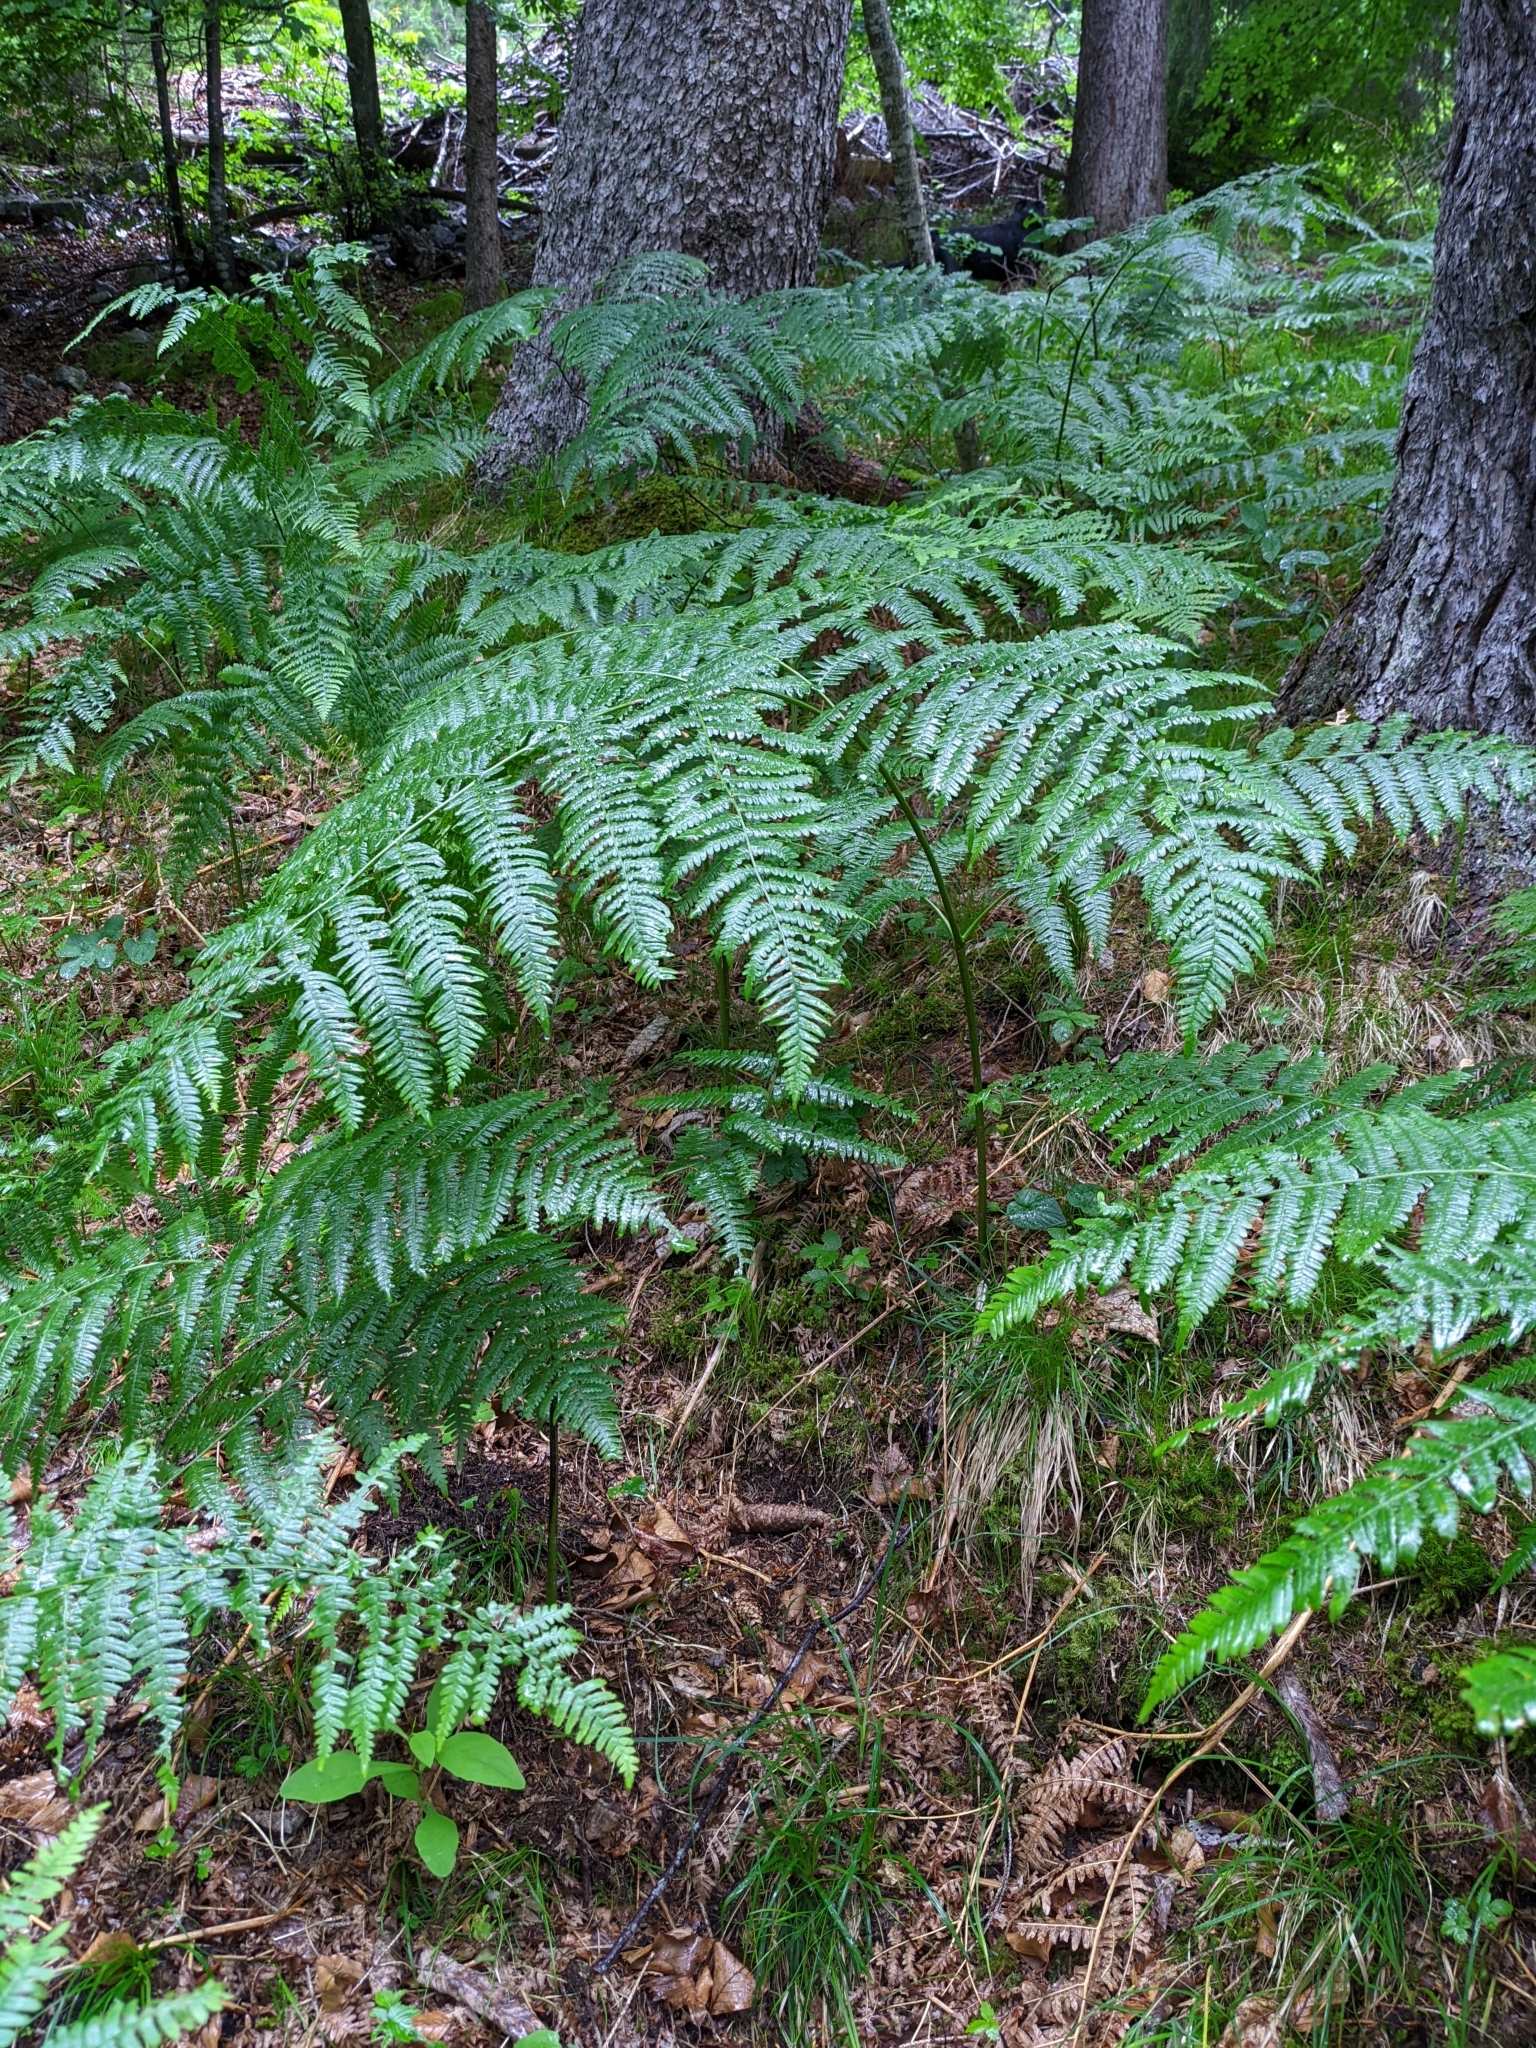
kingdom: Plantae
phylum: Tracheophyta
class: Polypodiopsida
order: Polypodiales
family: Dennstaedtiaceae
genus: Pteridium
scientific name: Pteridium aquilinum
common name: Bracken
